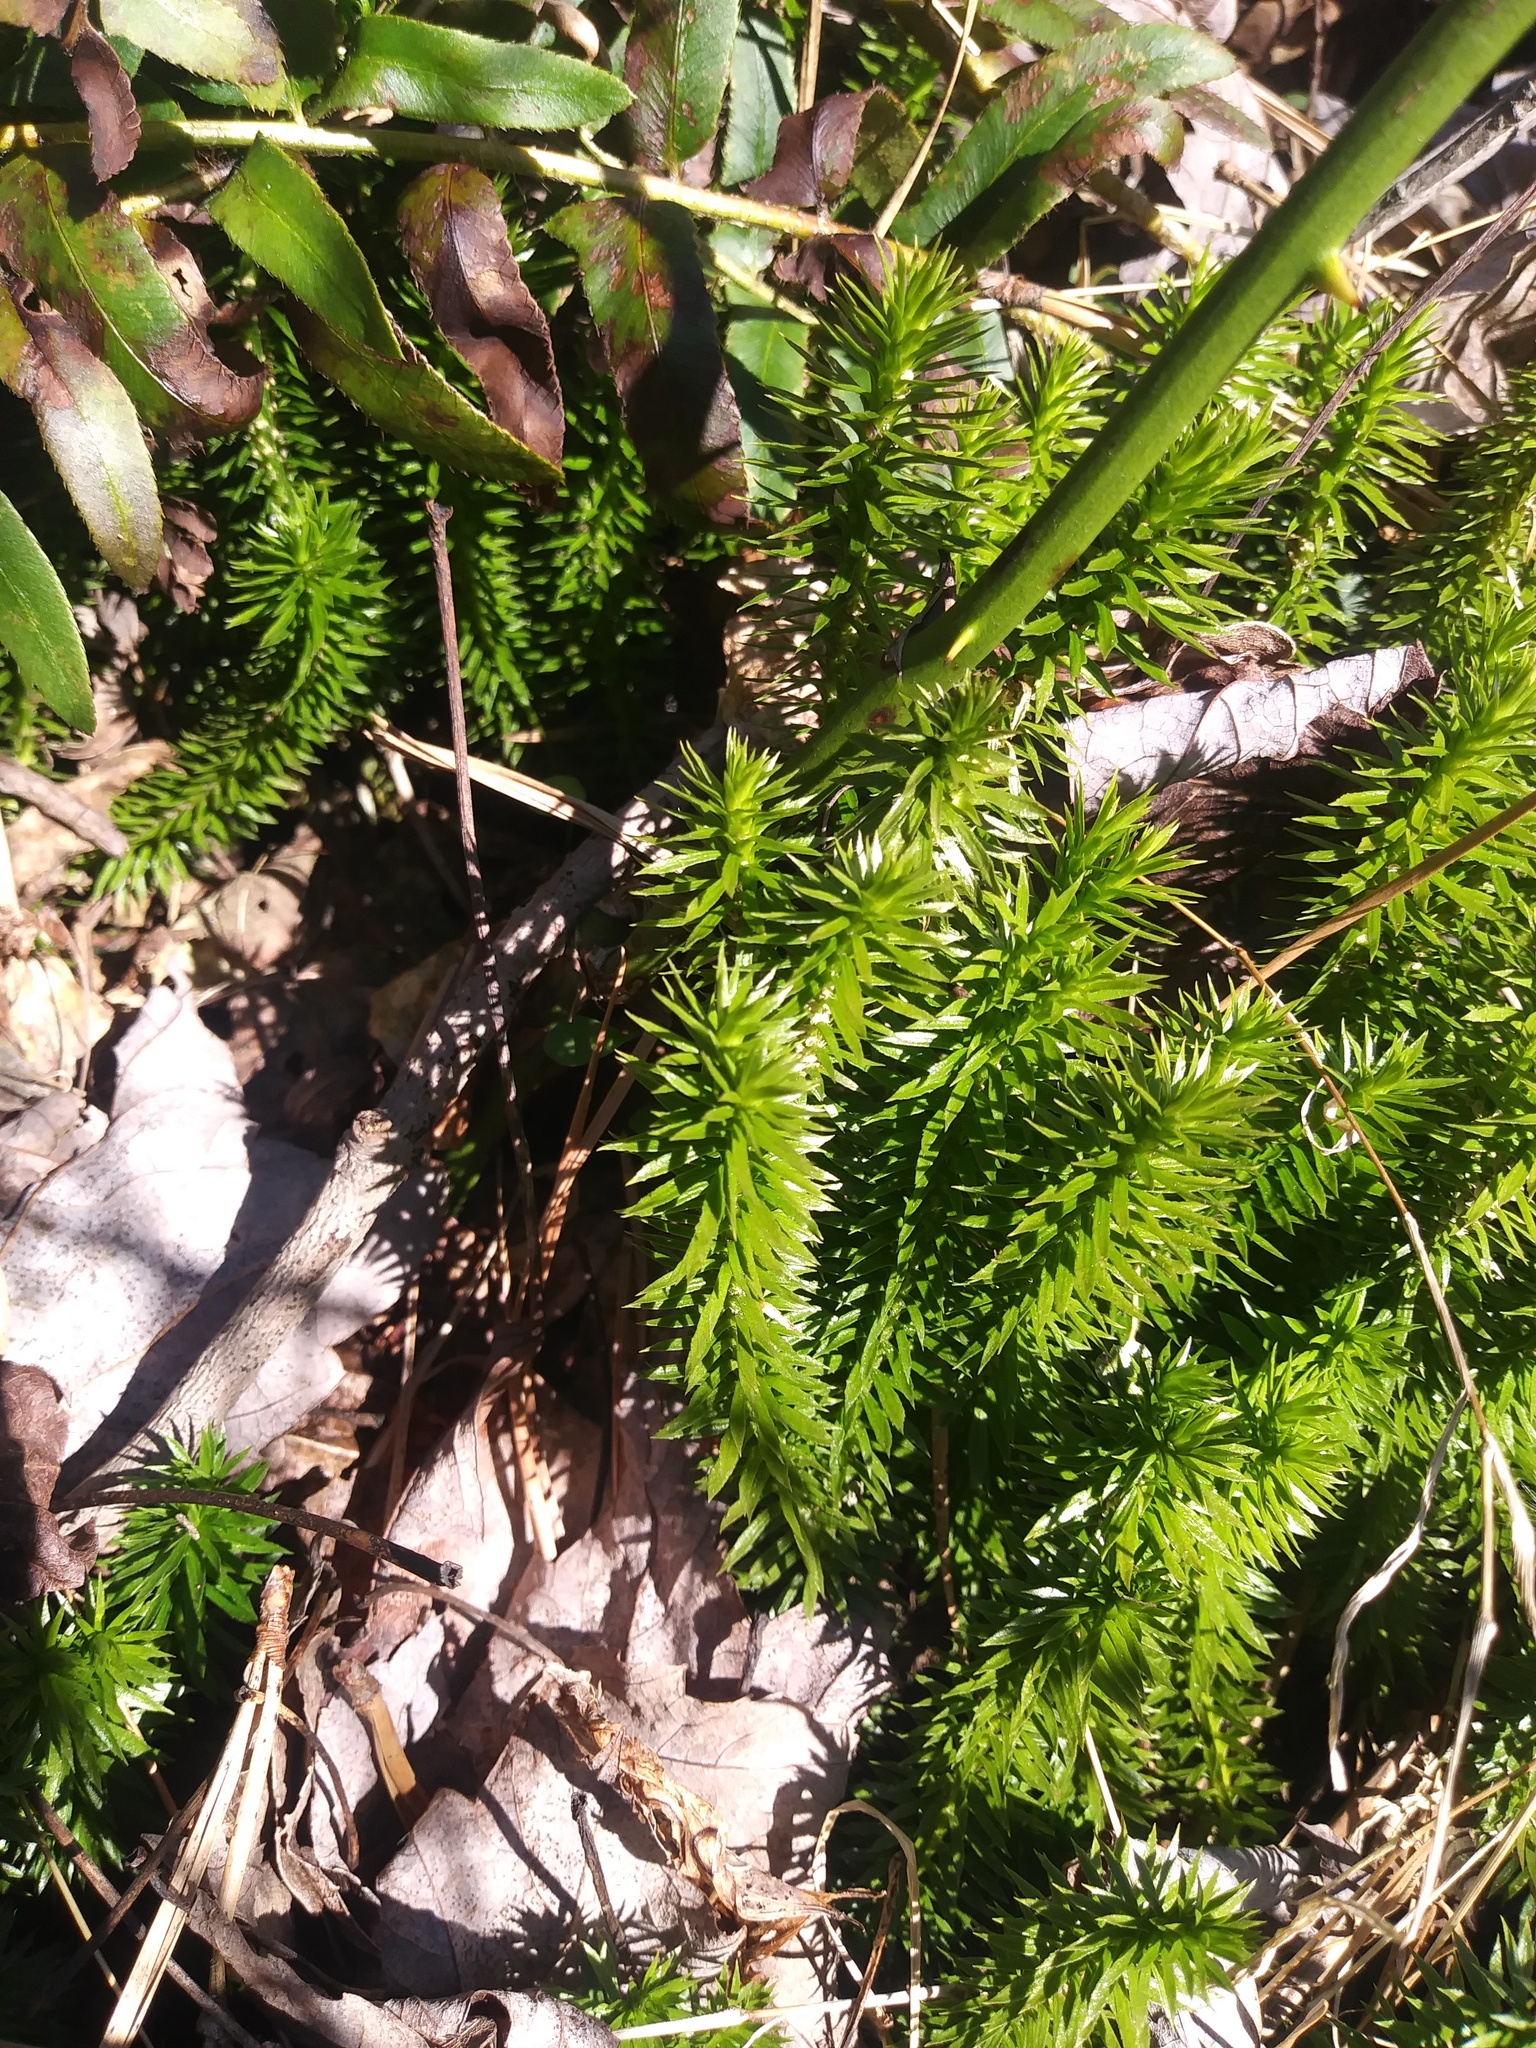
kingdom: Plantae
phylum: Tracheophyta
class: Lycopodiopsida
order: Lycopodiales
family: Lycopodiaceae
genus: Huperzia
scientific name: Huperzia lucidula
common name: Shining clubmoss
